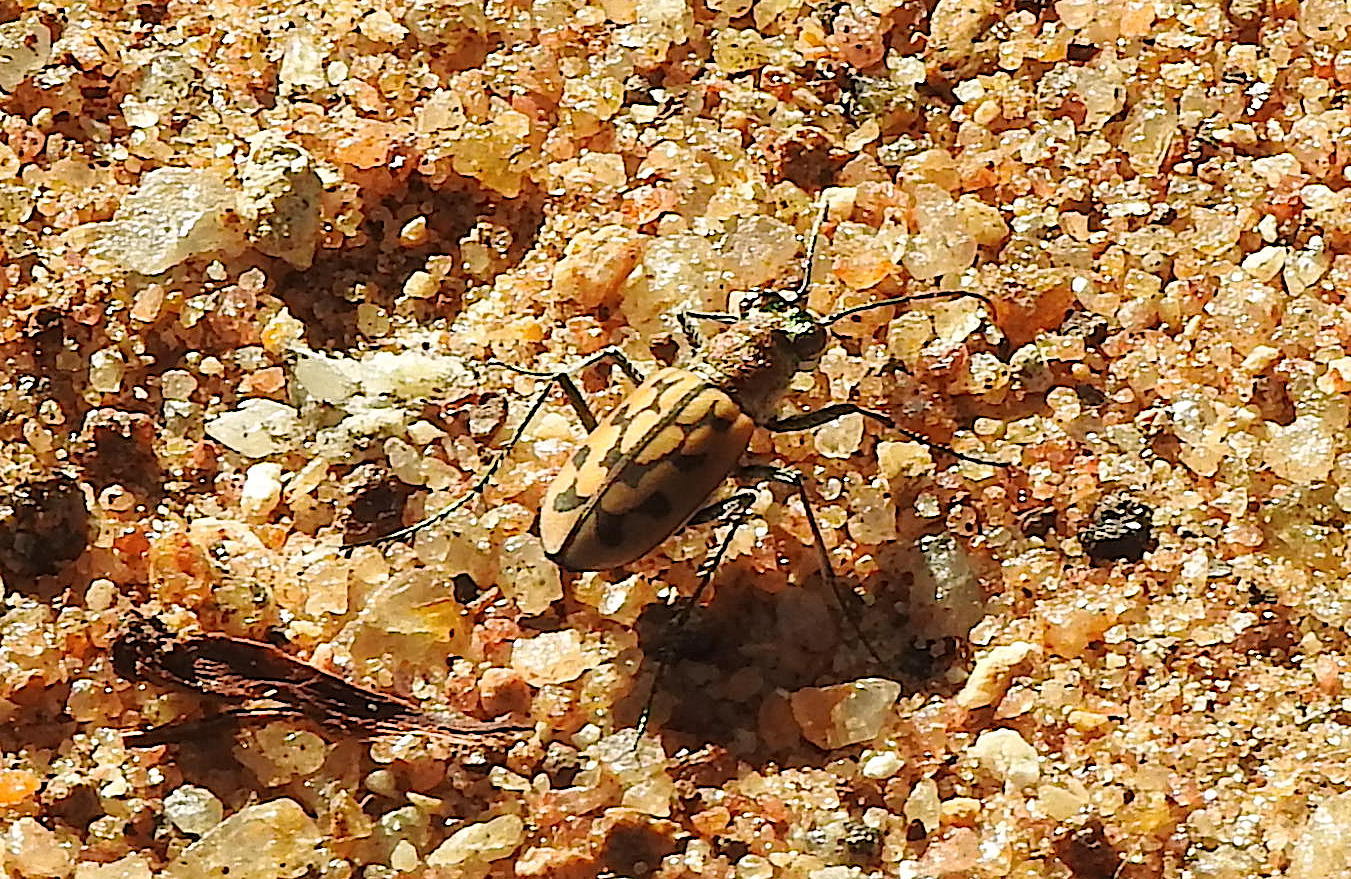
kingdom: Animalia
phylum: Arthropoda
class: Insecta
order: Coleoptera
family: Carabidae
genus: Lophyra
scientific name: Lophyra catena
